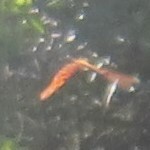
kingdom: Animalia
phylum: Arthropoda
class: Insecta
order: Lepidoptera
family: Nymphalidae
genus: Dione
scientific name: Dione vanillae
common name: Gulf fritillary
